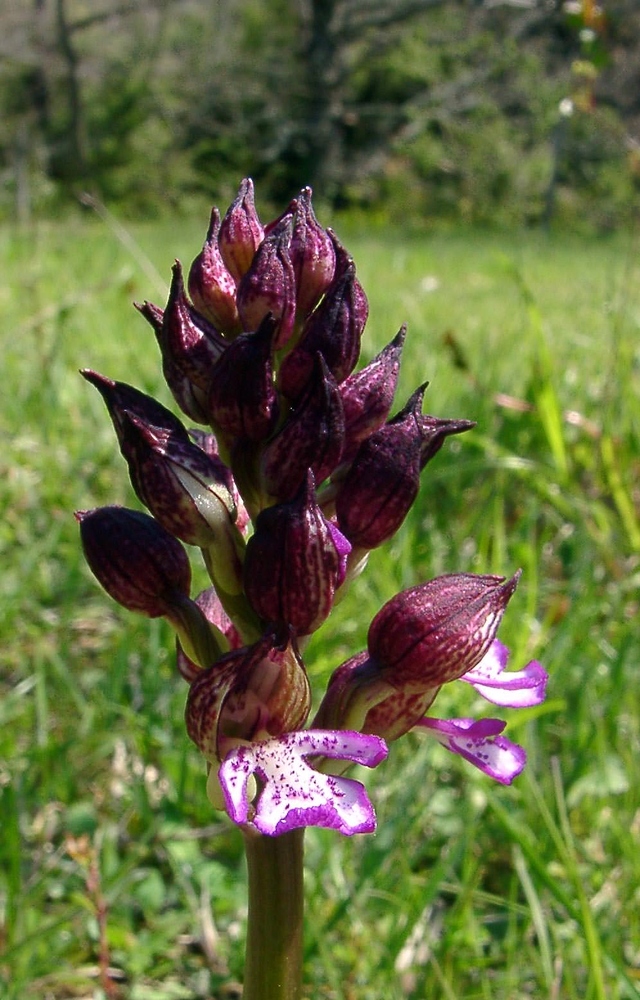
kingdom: Plantae
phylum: Tracheophyta
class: Liliopsida
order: Asparagales
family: Orchidaceae
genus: Orchis
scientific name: Orchis purpurea
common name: Lady orchid
